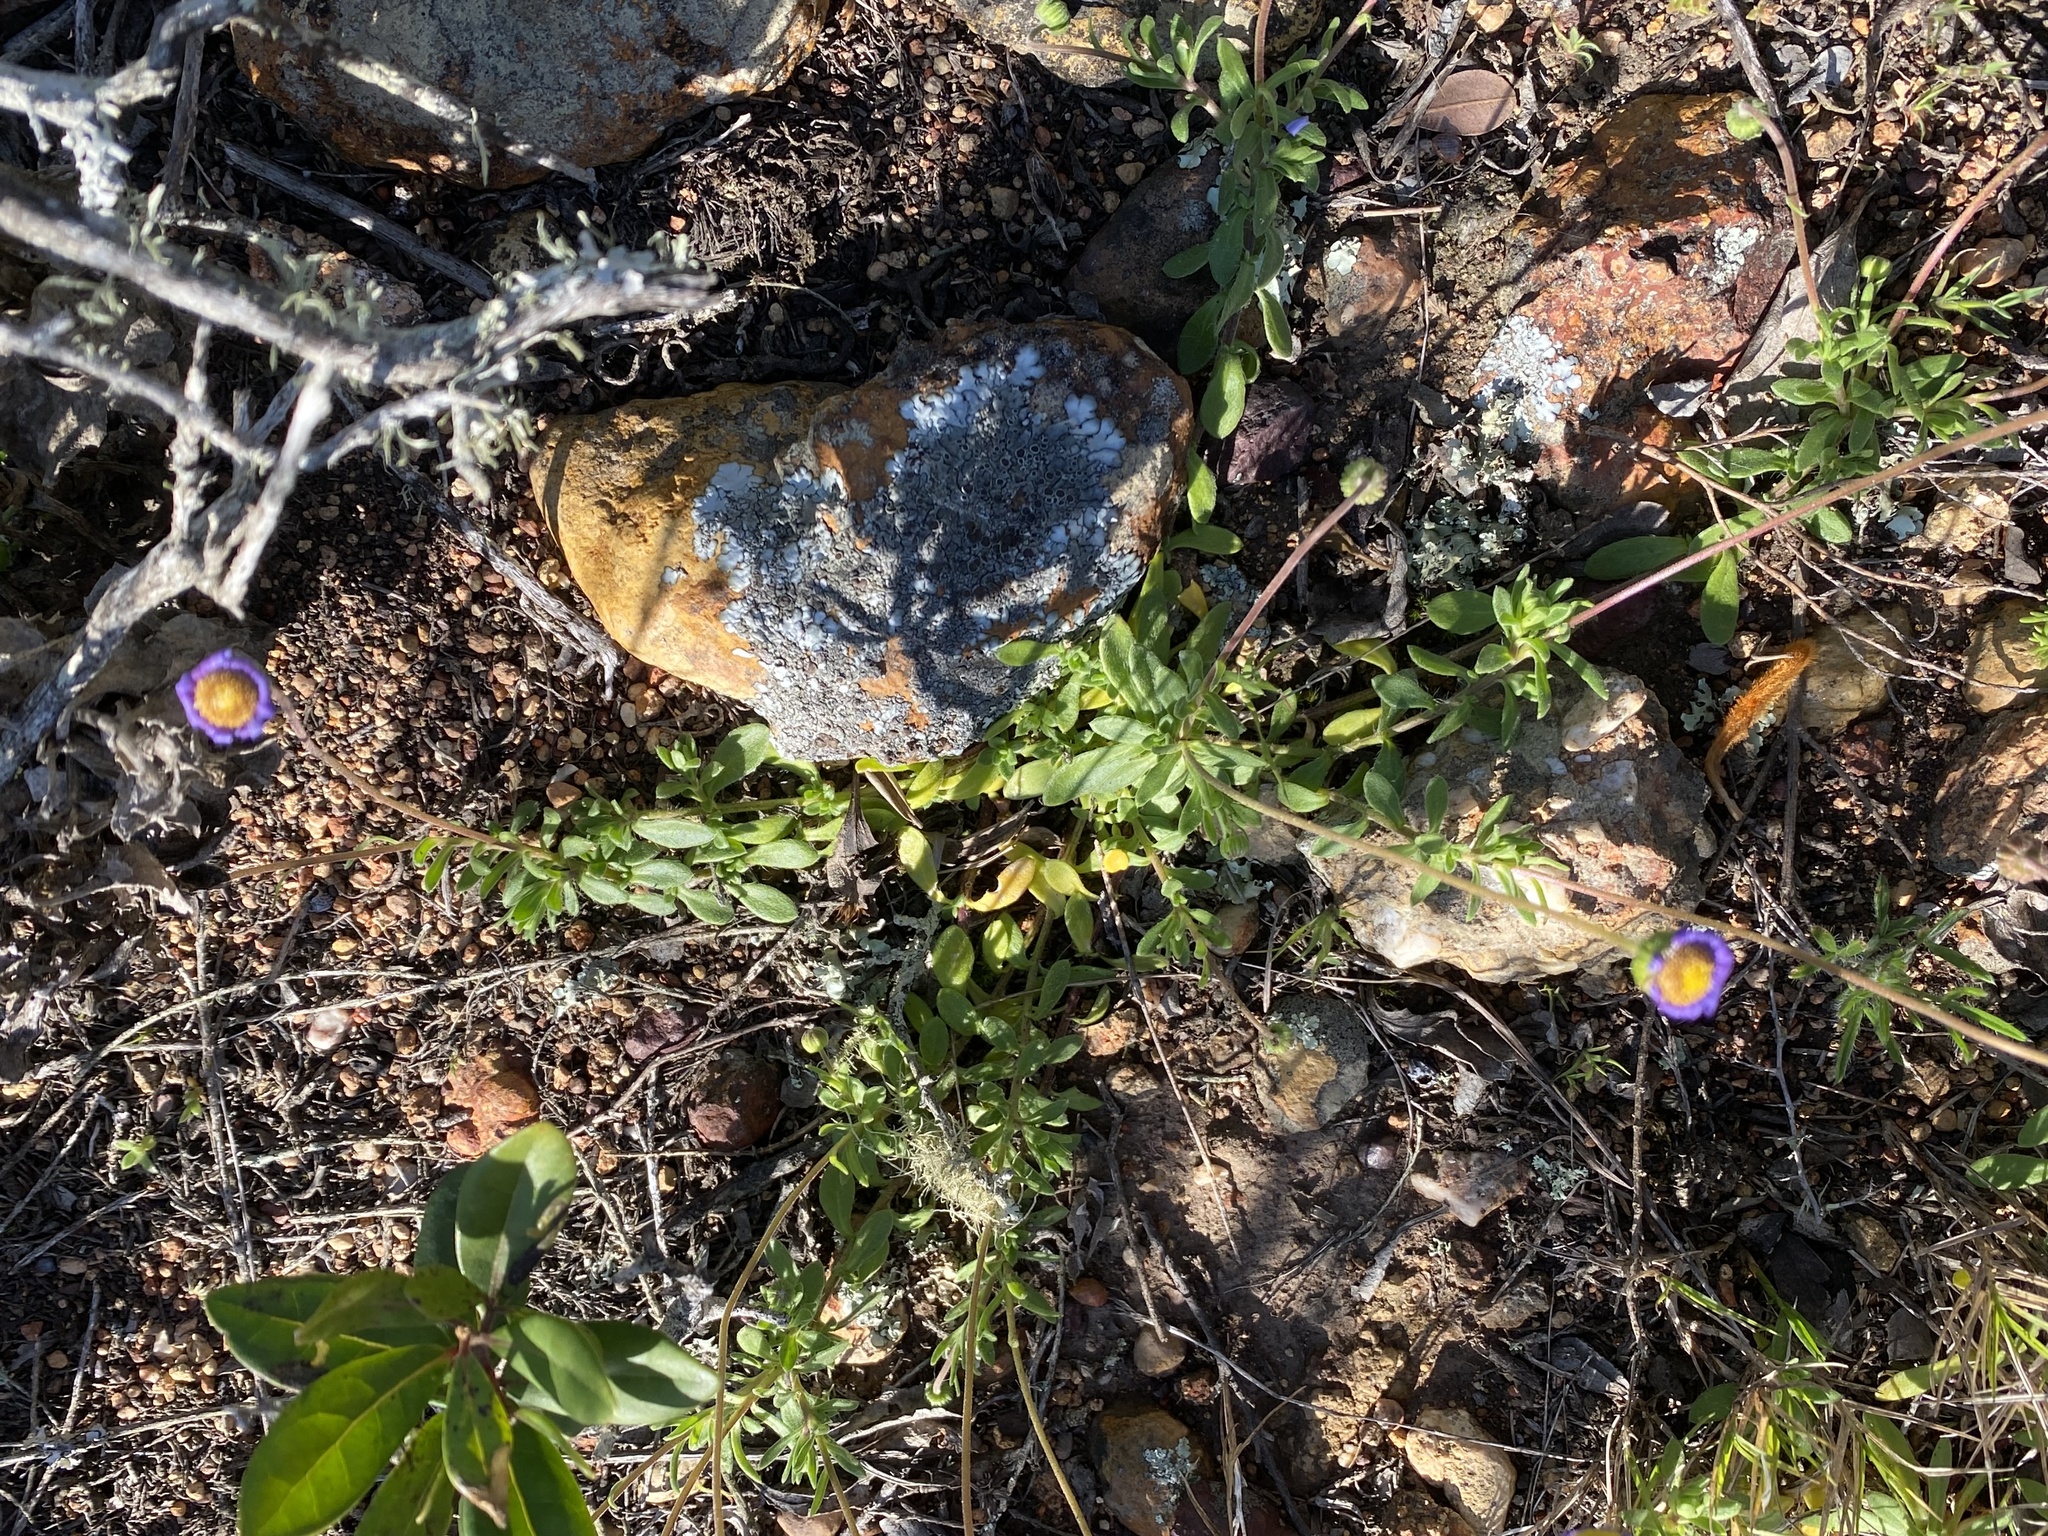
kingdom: Plantae
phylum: Tracheophyta
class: Magnoliopsida
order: Asterales
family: Asteraceae
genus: Felicia
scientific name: Felicia amoena
